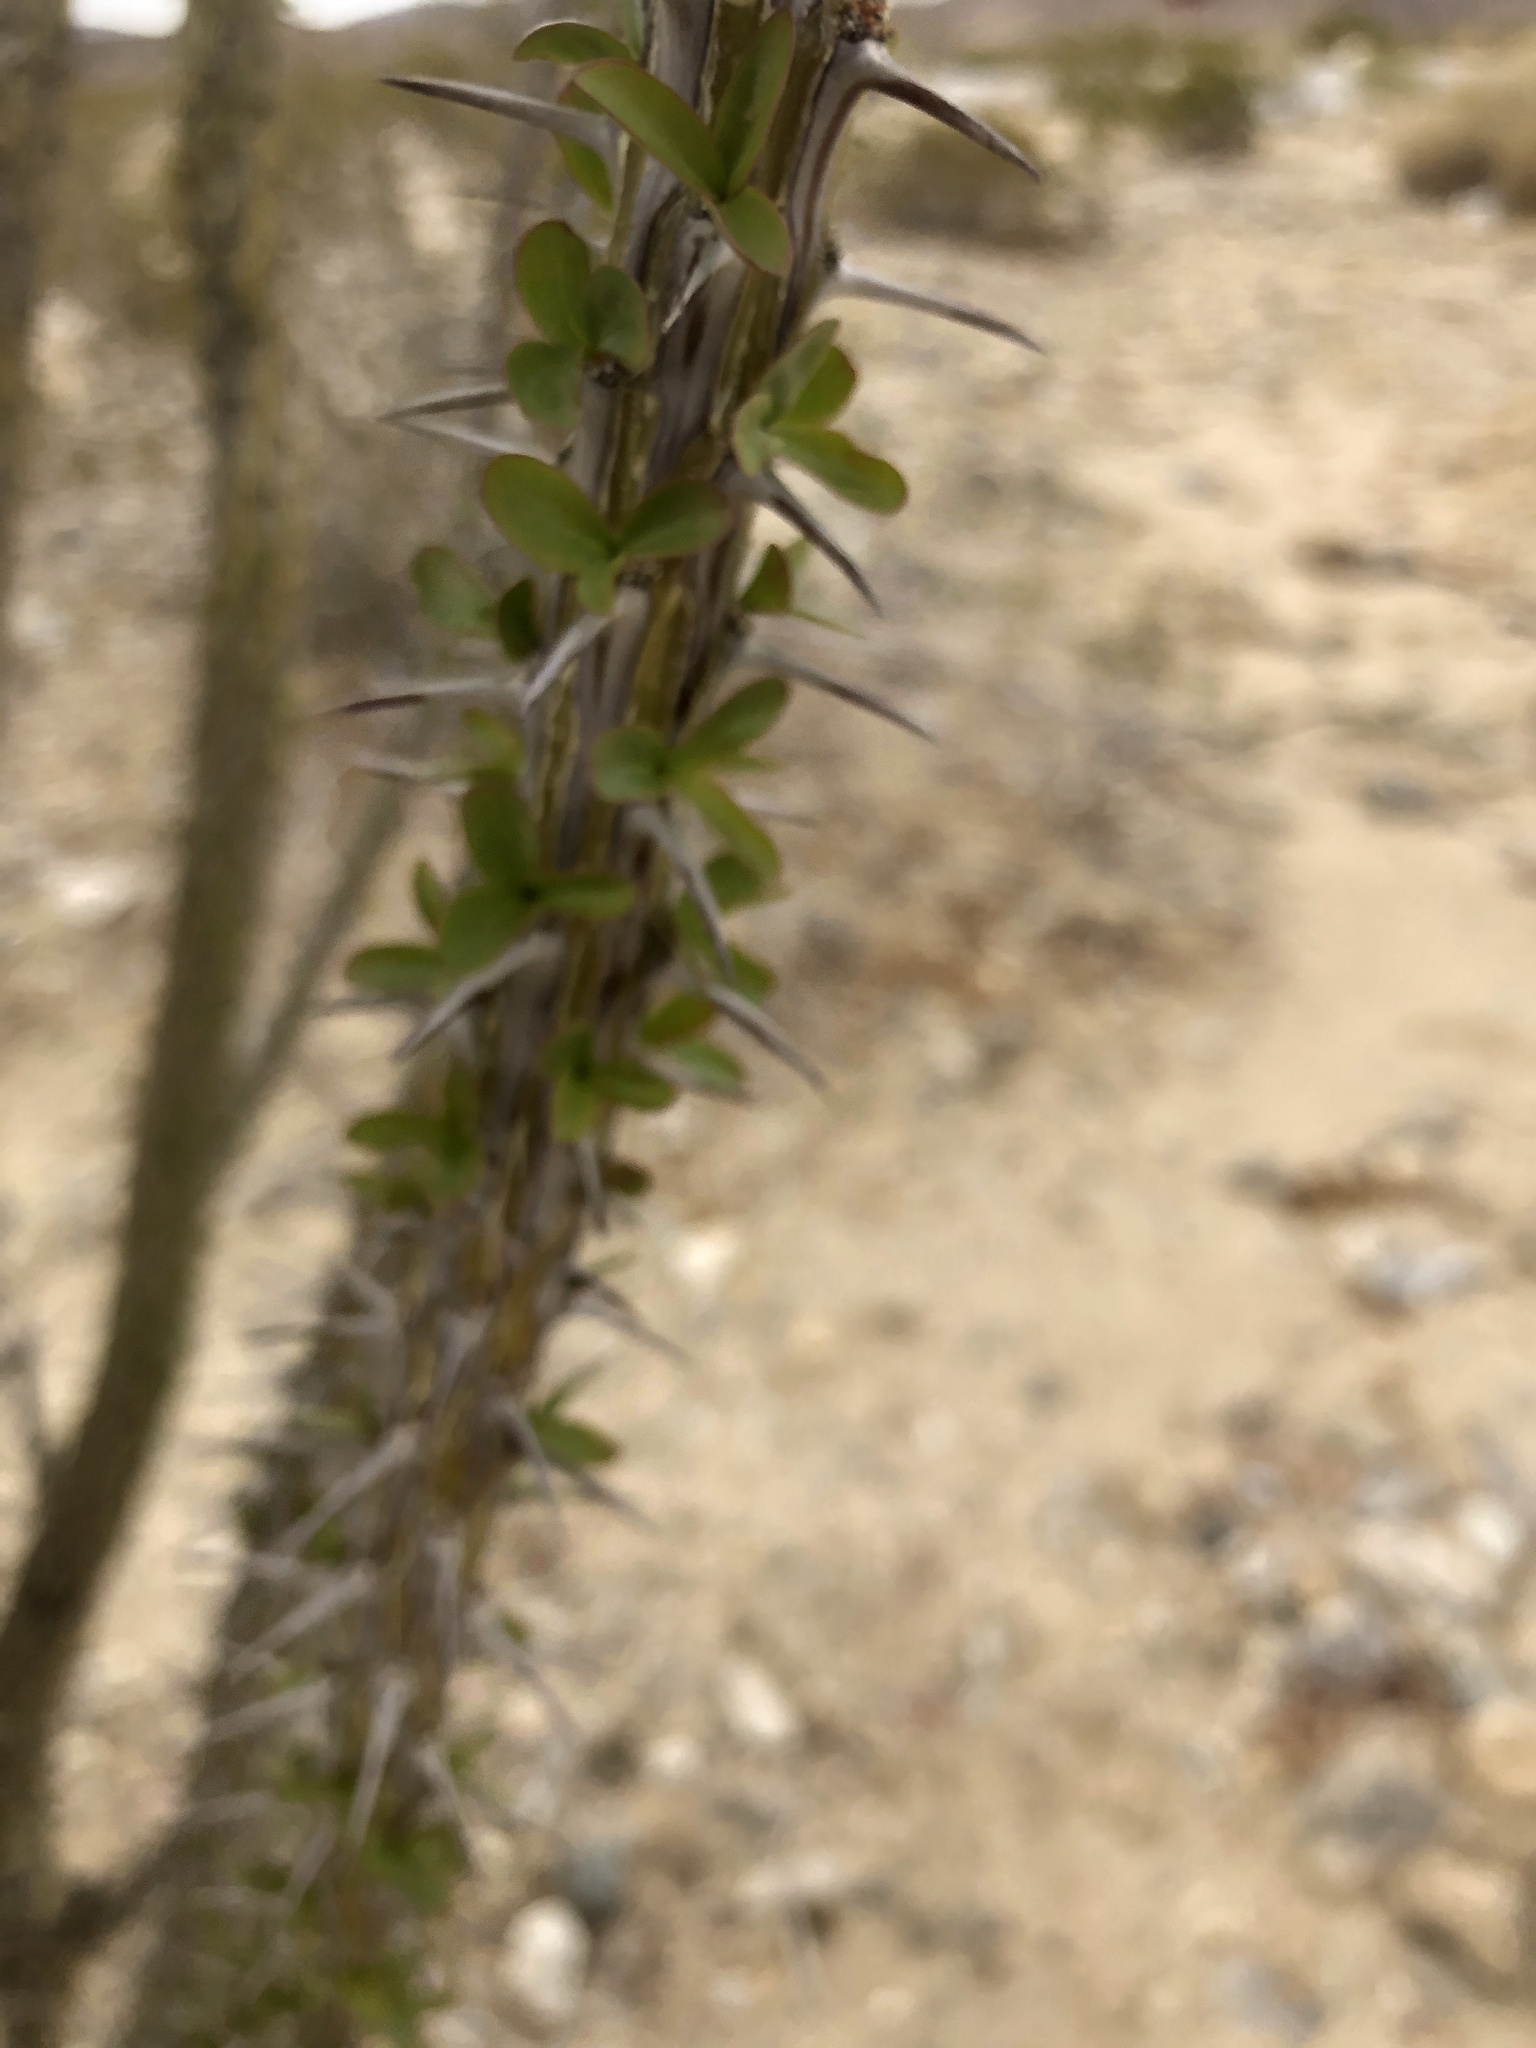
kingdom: Plantae
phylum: Tracheophyta
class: Magnoliopsida
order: Ericales
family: Fouquieriaceae
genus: Fouquieria
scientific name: Fouquieria splendens
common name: Vine-cactus
